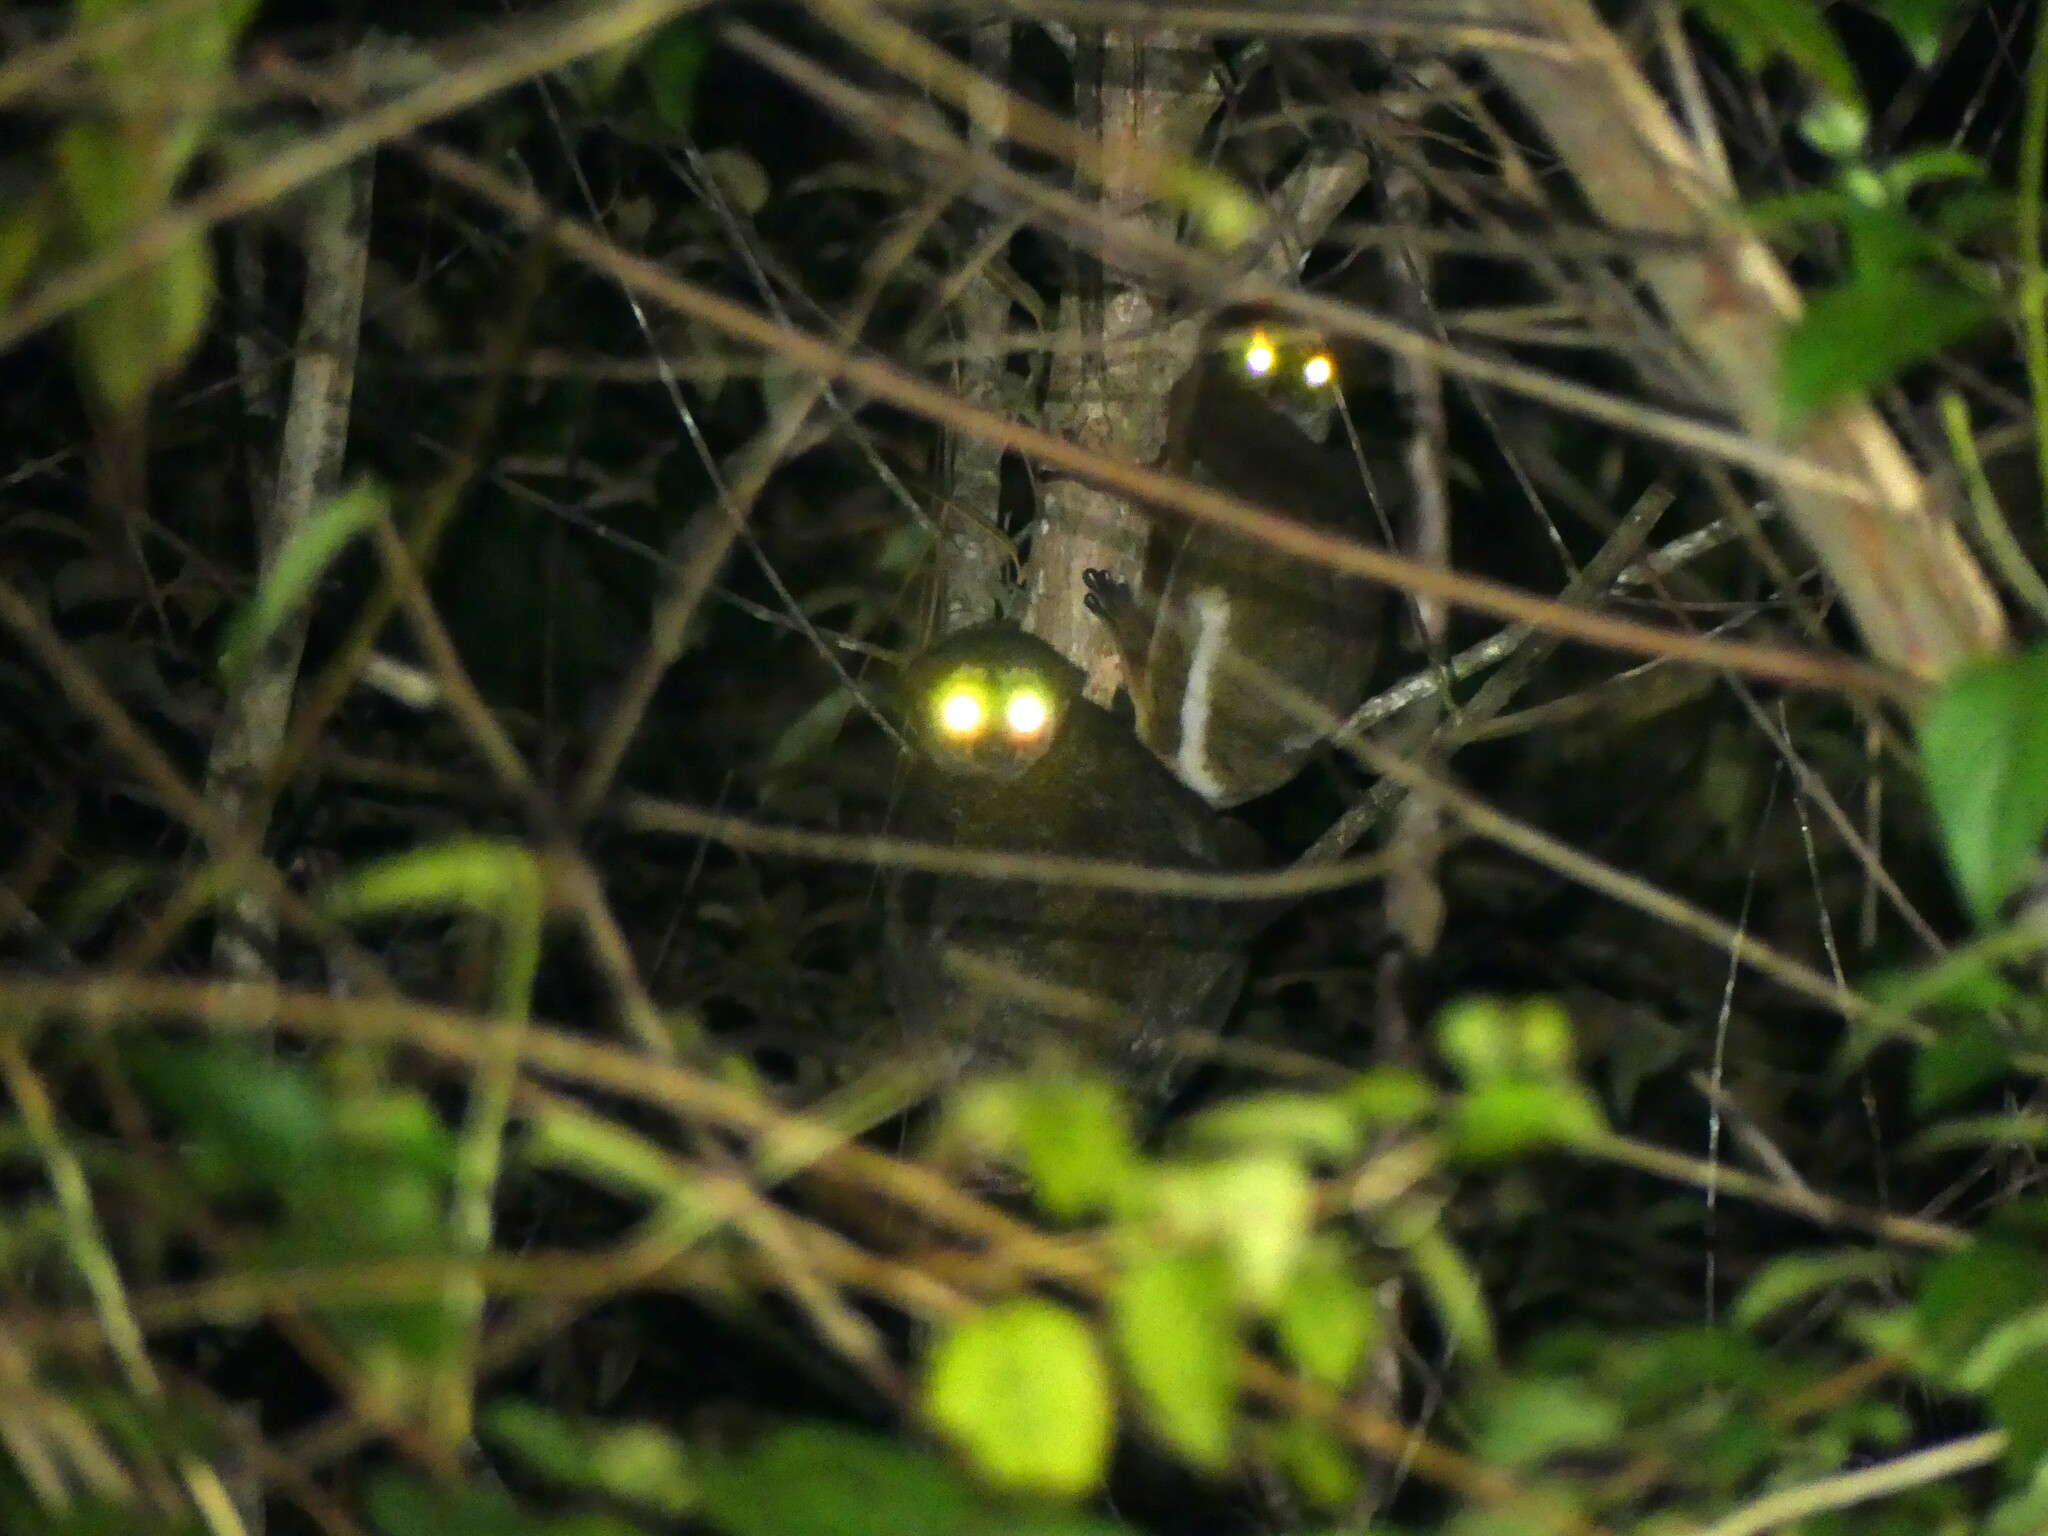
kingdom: Animalia
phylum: Chordata
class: Mammalia
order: Primates
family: Indriidae
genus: Avahi
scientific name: Avahi laniger
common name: Eastern woolly lemur
